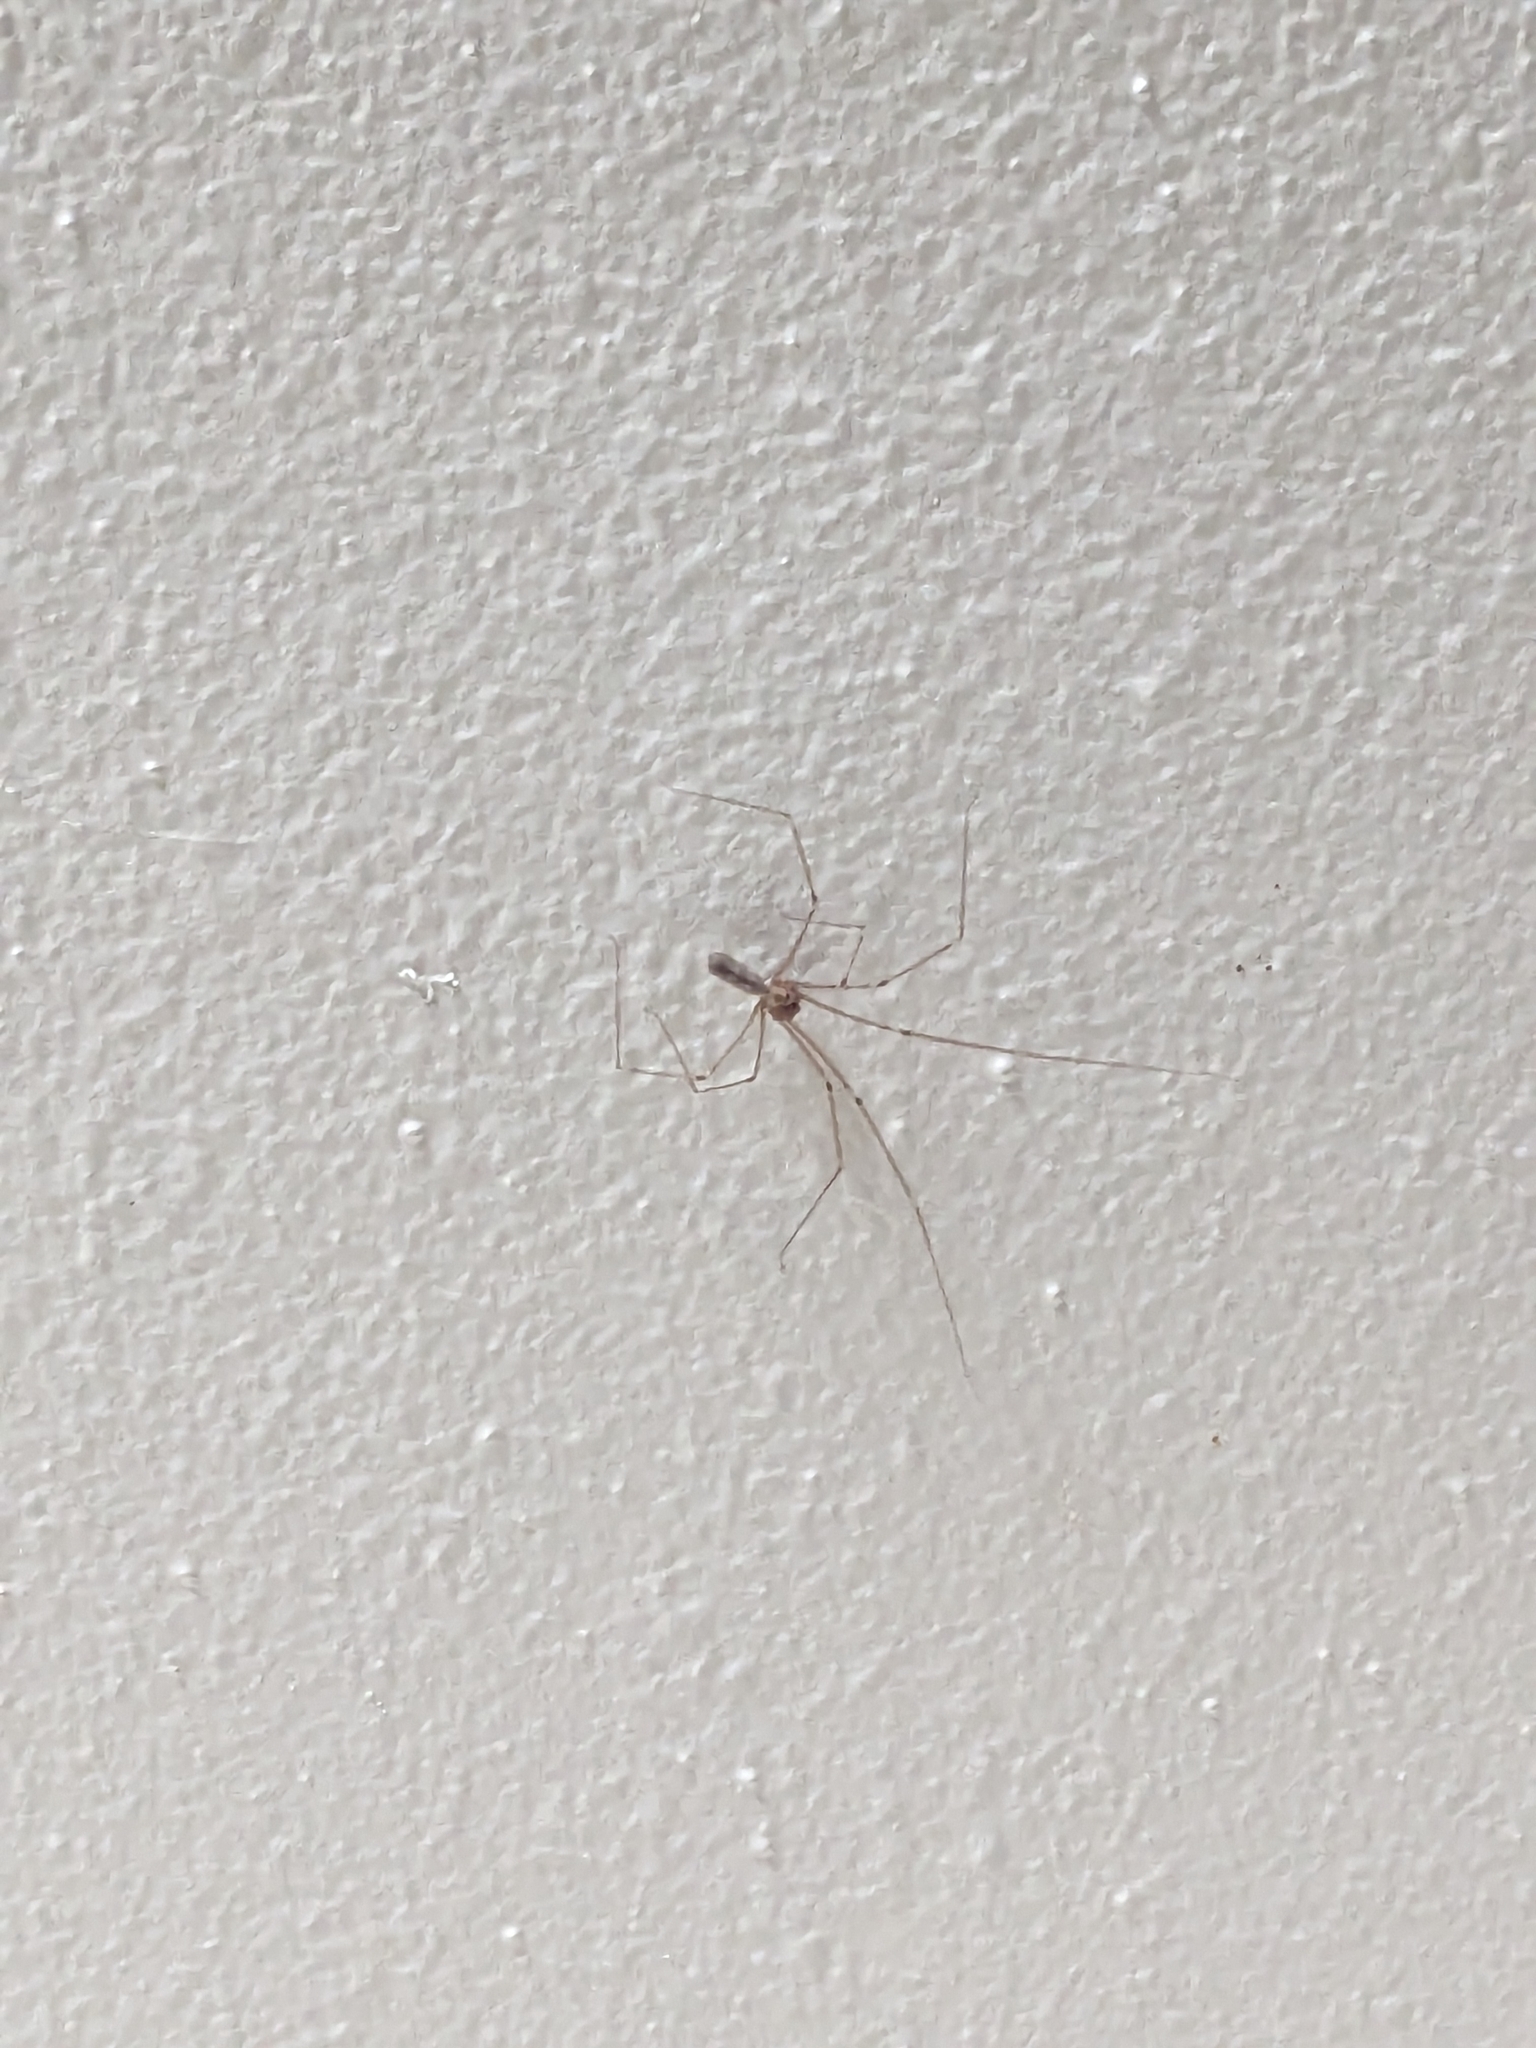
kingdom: Animalia
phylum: Arthropoda
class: Arachnida
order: Araneae
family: Pholcidae
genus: Pholcus
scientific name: Pholcus phalangioides
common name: Longbodied cellar spider
